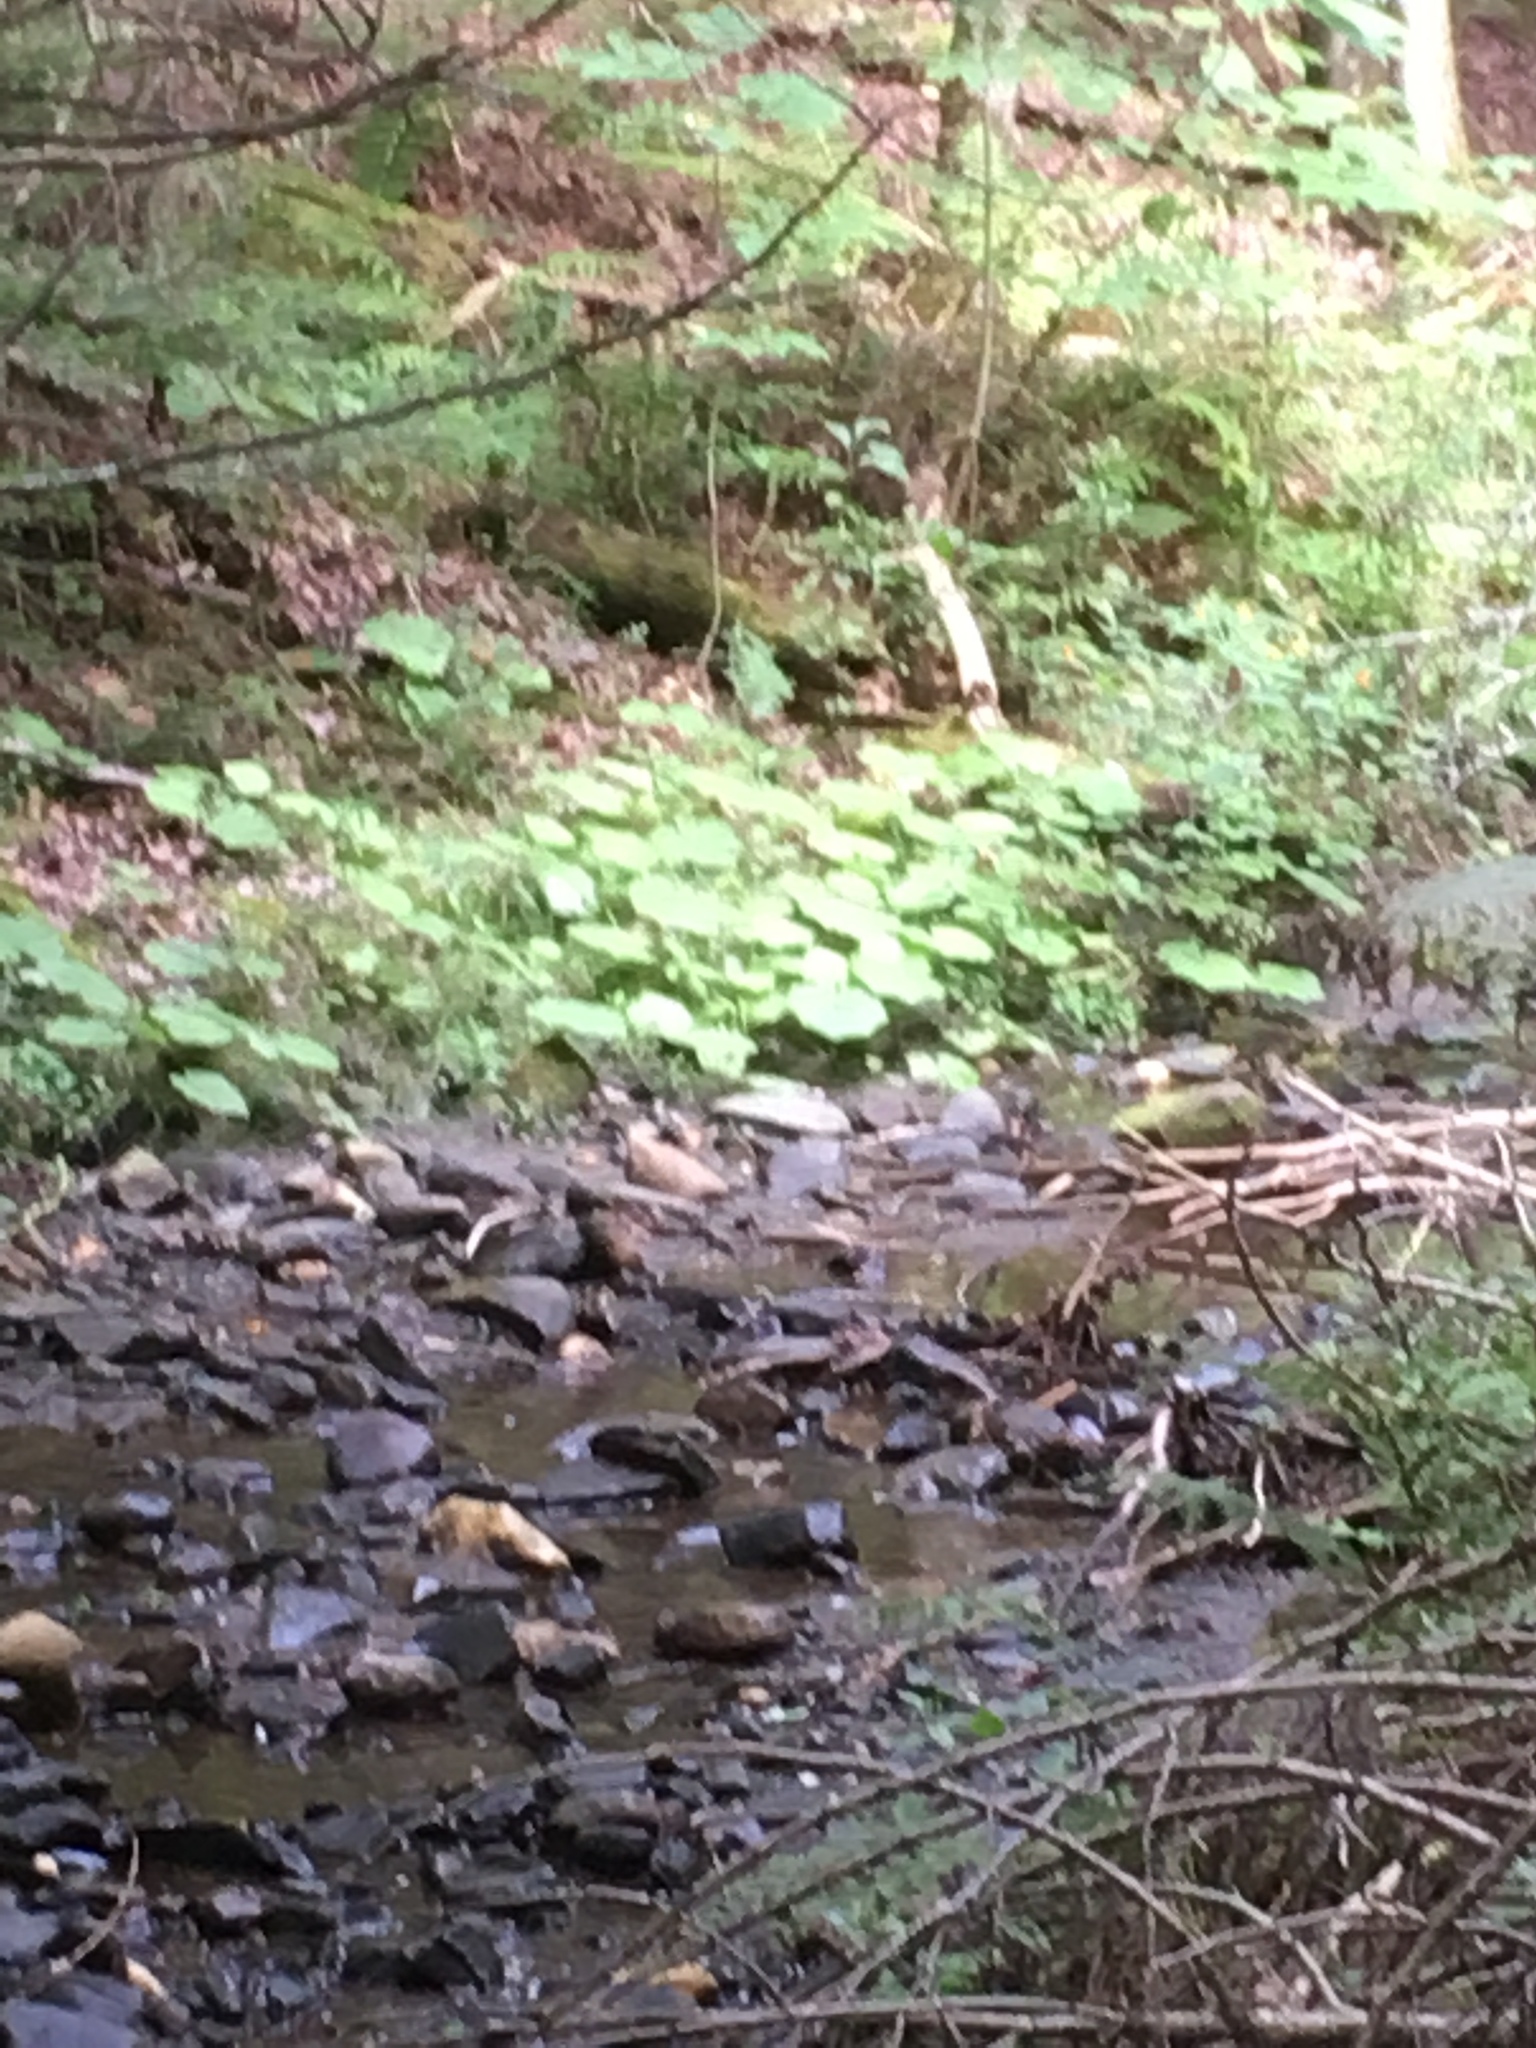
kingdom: Plantae
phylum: Tracheophyta
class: Magnoliopsida
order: Asterales
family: Asteraceae
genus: Tussilago
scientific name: Tussilago farfara
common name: Coltsfoot
